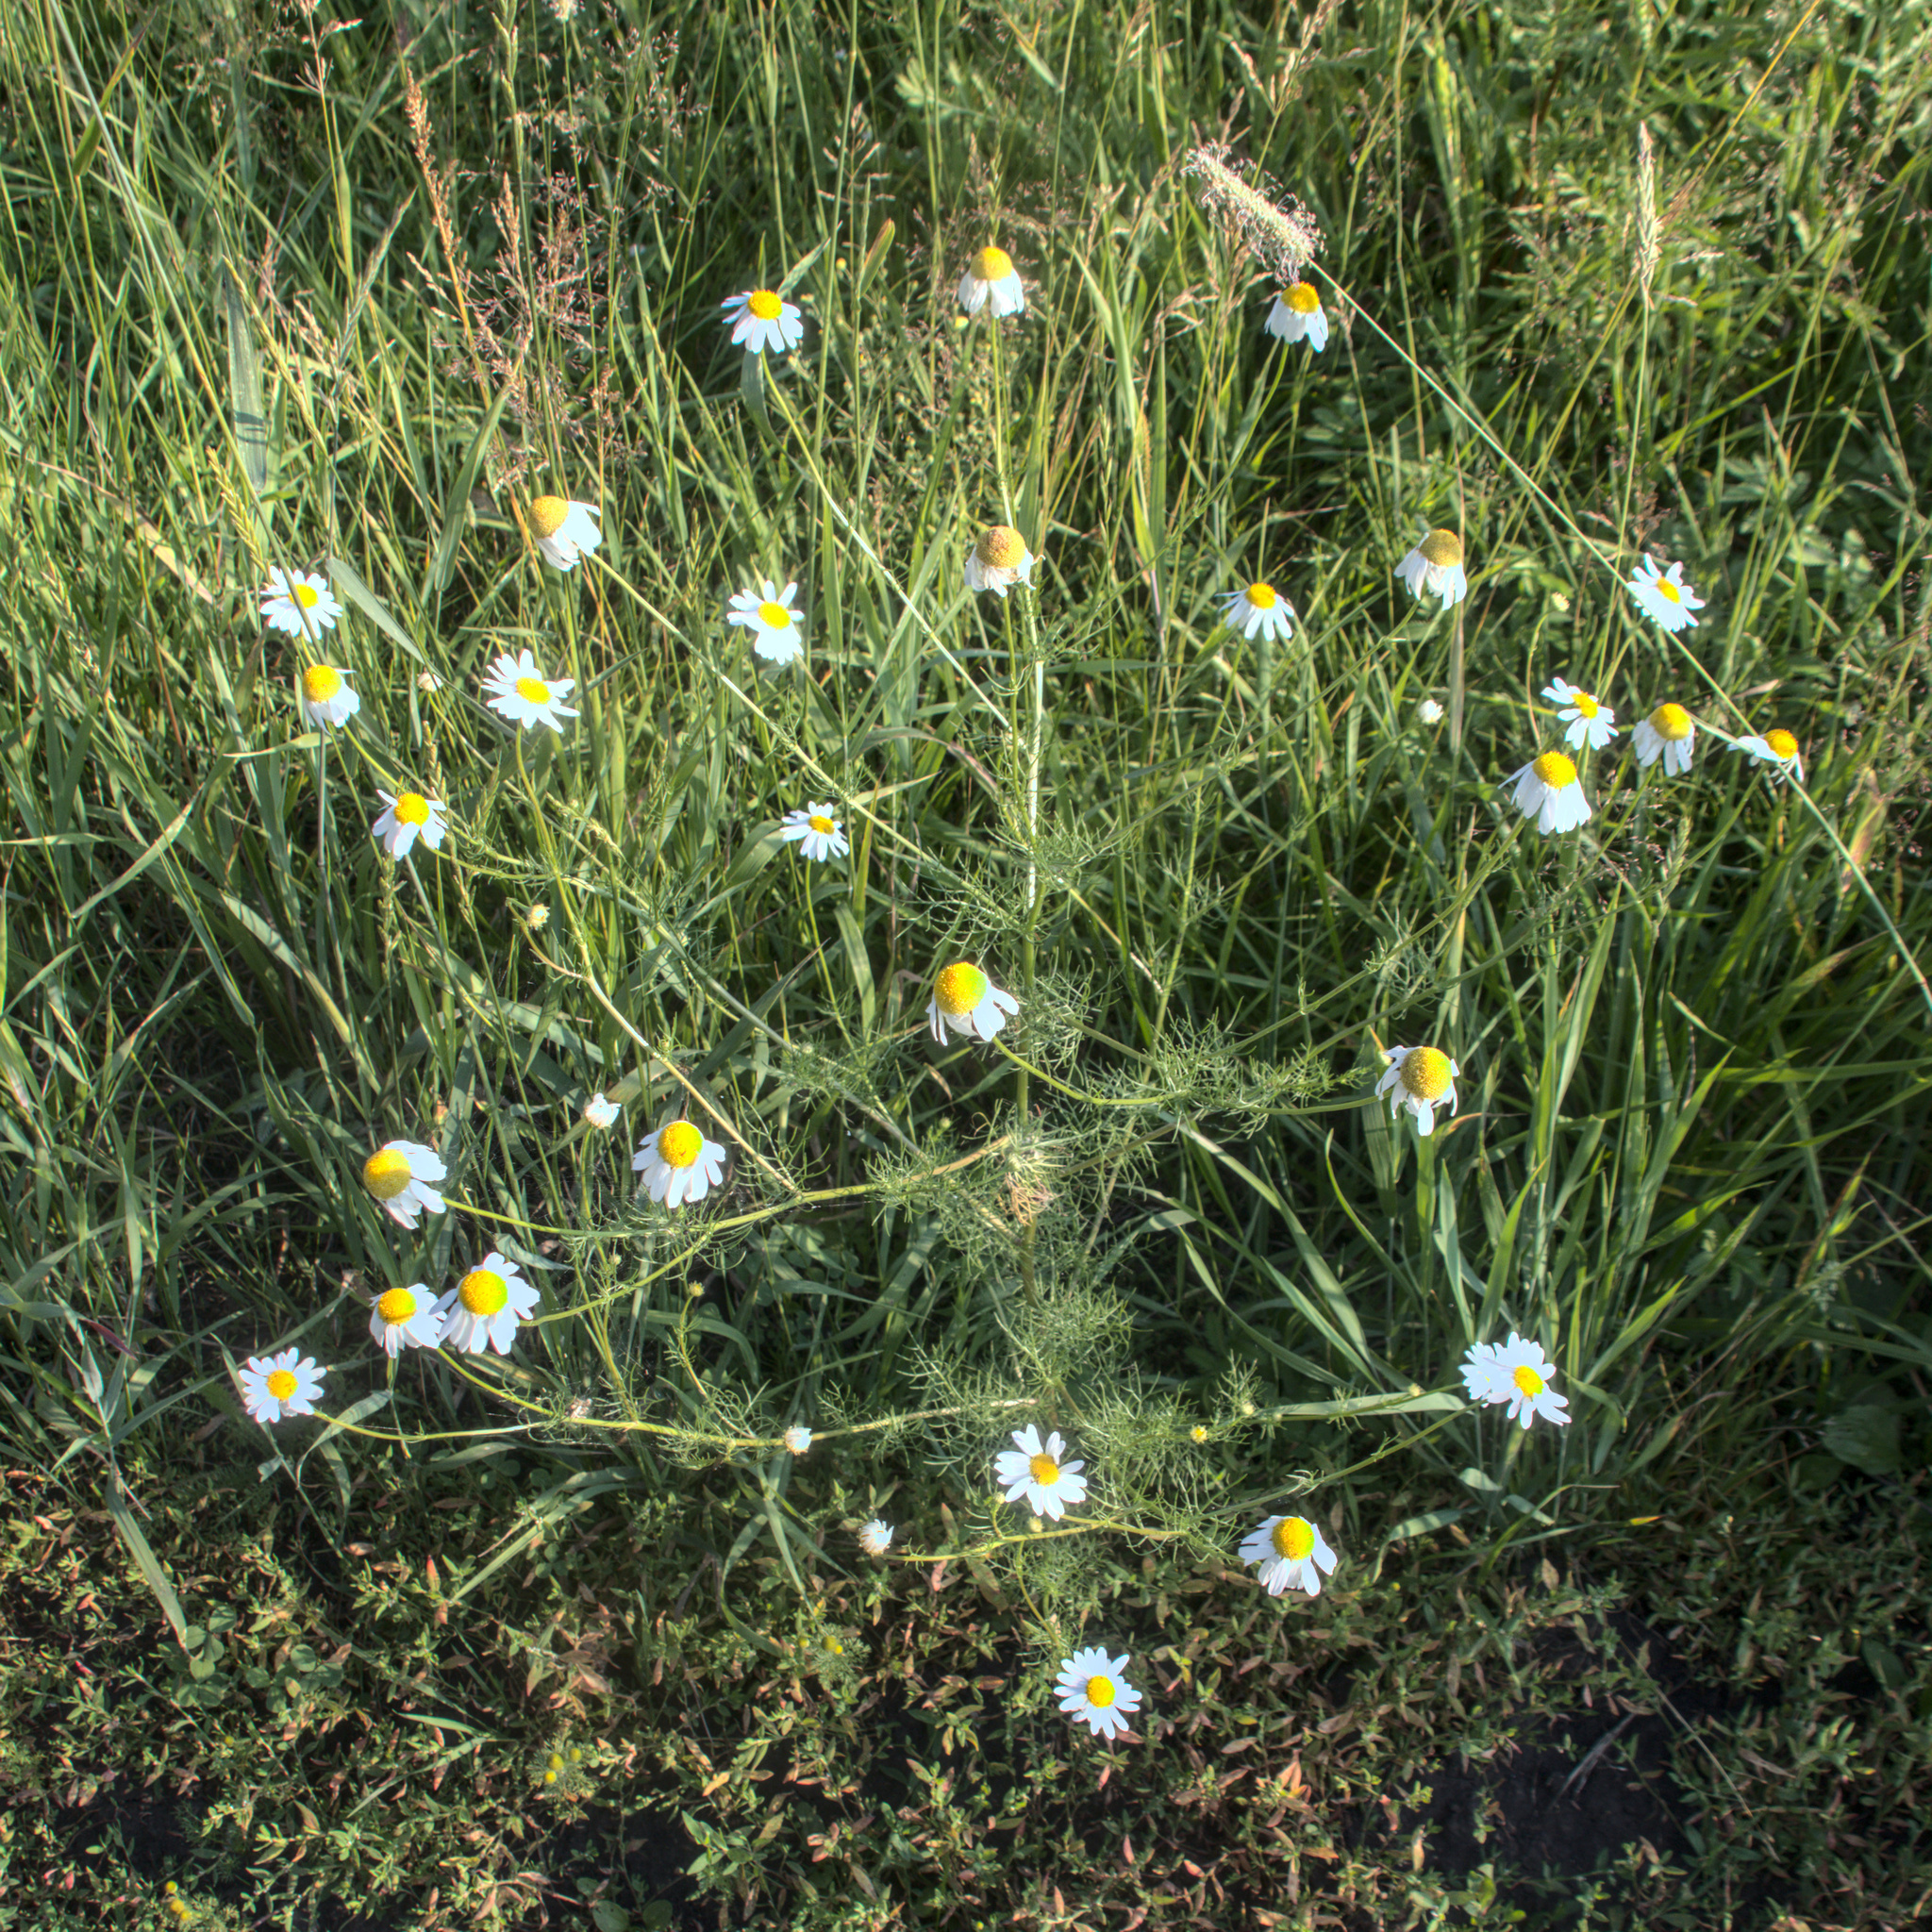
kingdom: Plantae
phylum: Tracheophyta
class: Magnoliopsida
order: Asterales
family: Asteraceae
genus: Tripleurospermum
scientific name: Tripleurospermum inodorum
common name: Scentless mayweed
